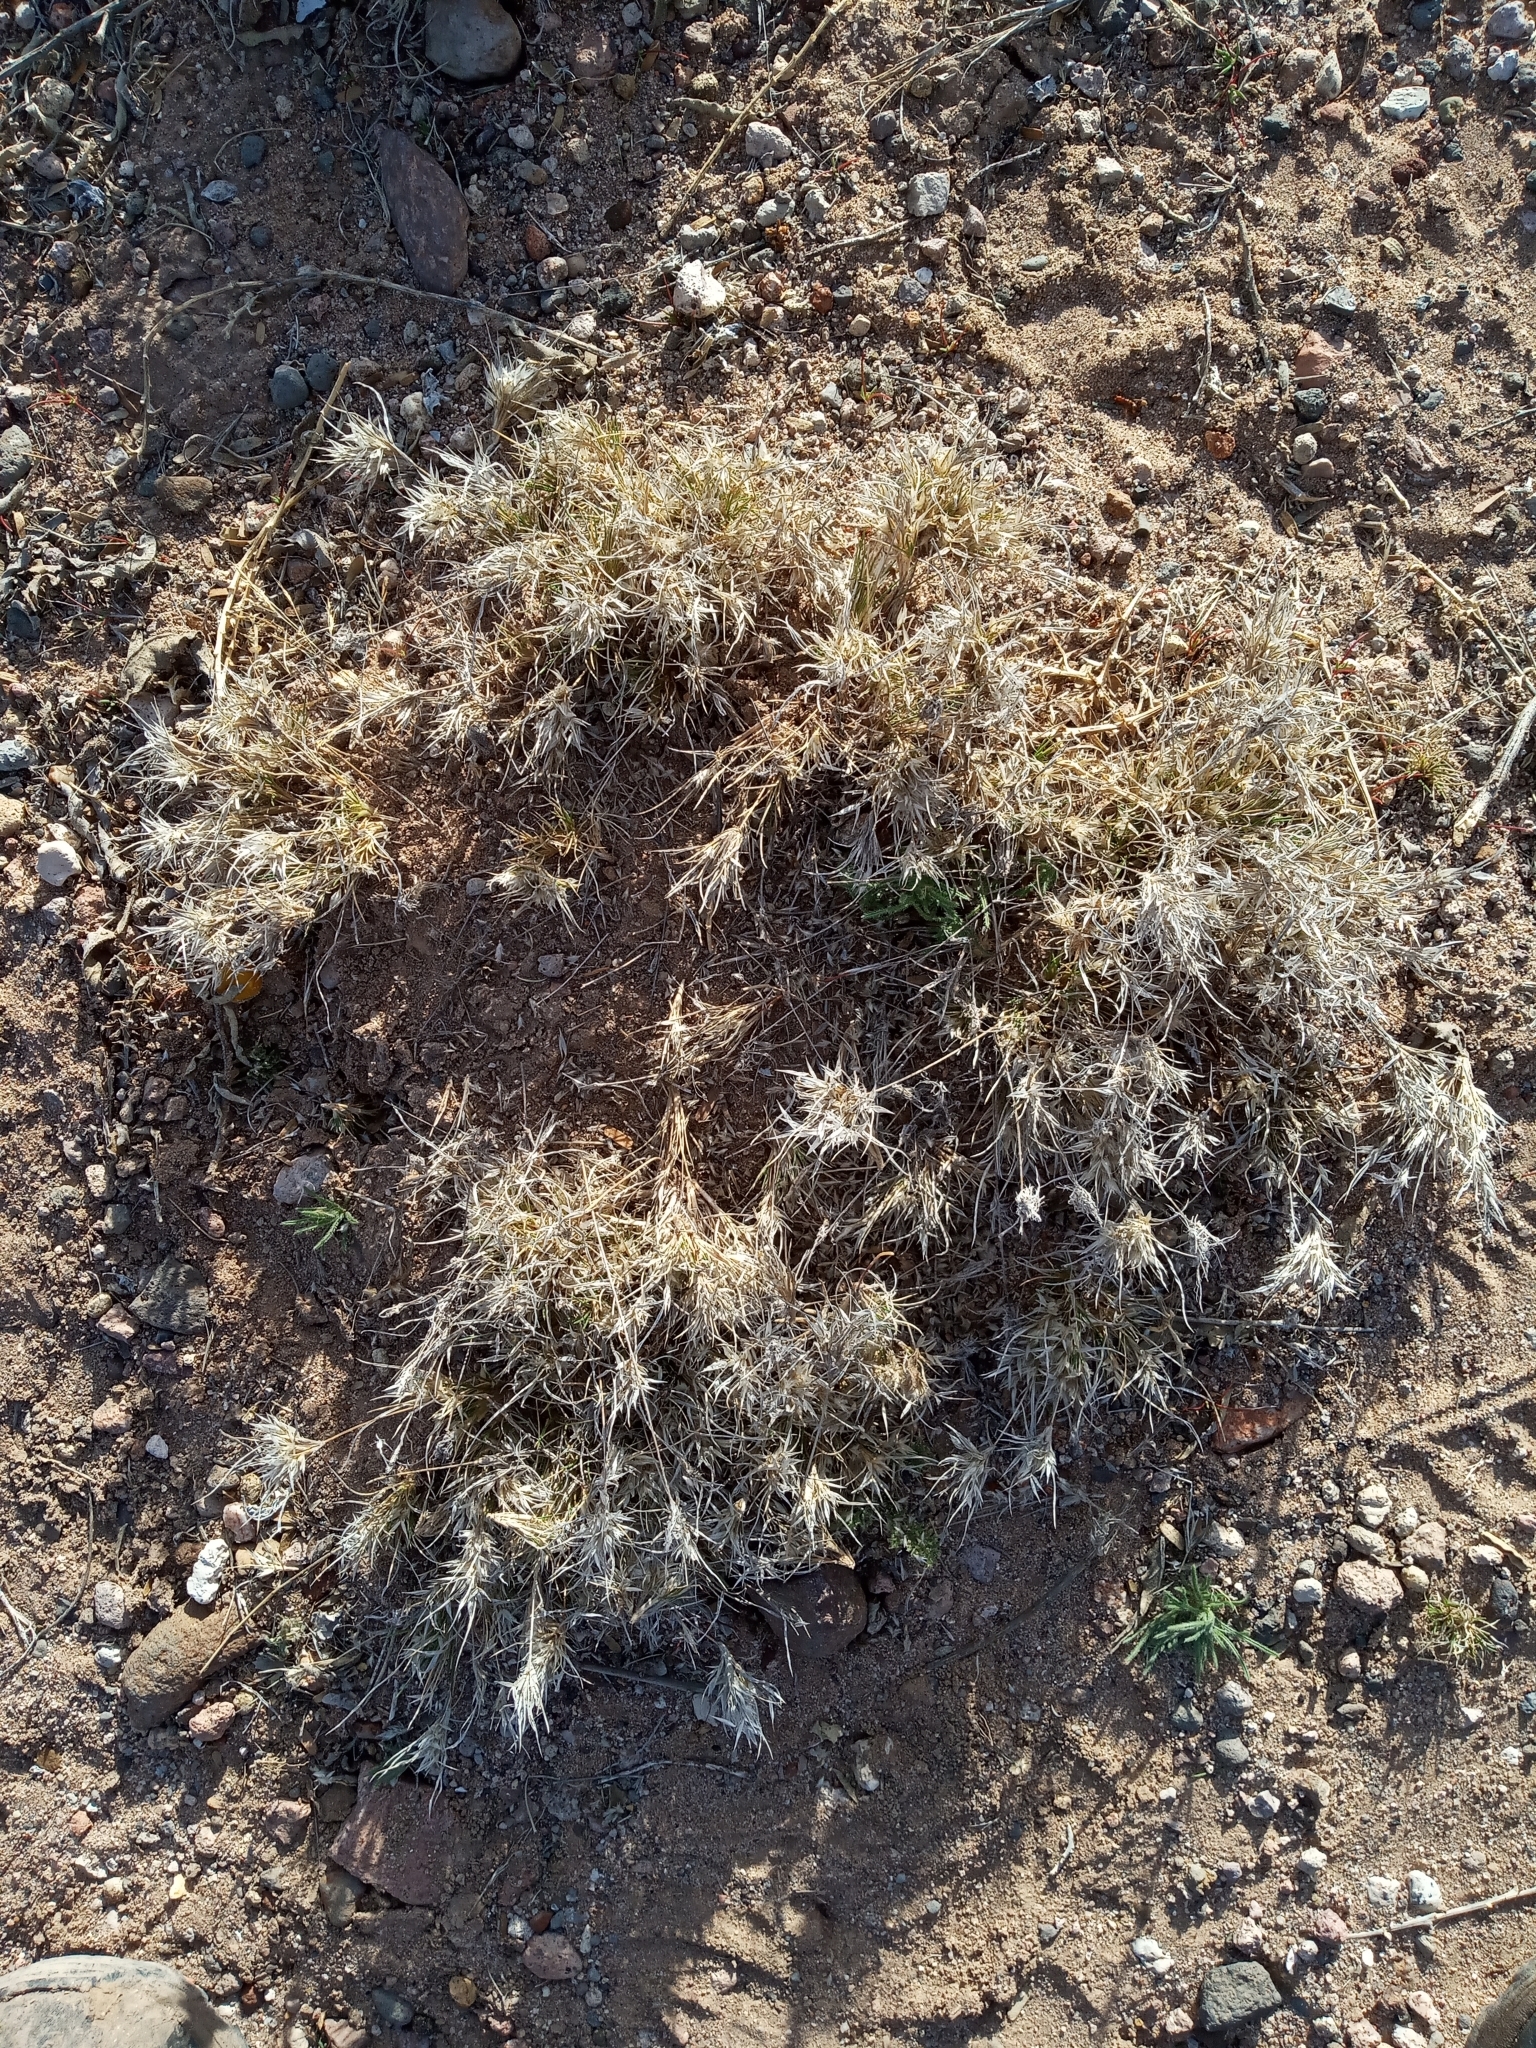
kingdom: Plantae
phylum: Tracheophyta
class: Liliopsida
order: Poales
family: Poaceae
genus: Dasyochloa
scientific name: Dasyochloa pulchella
